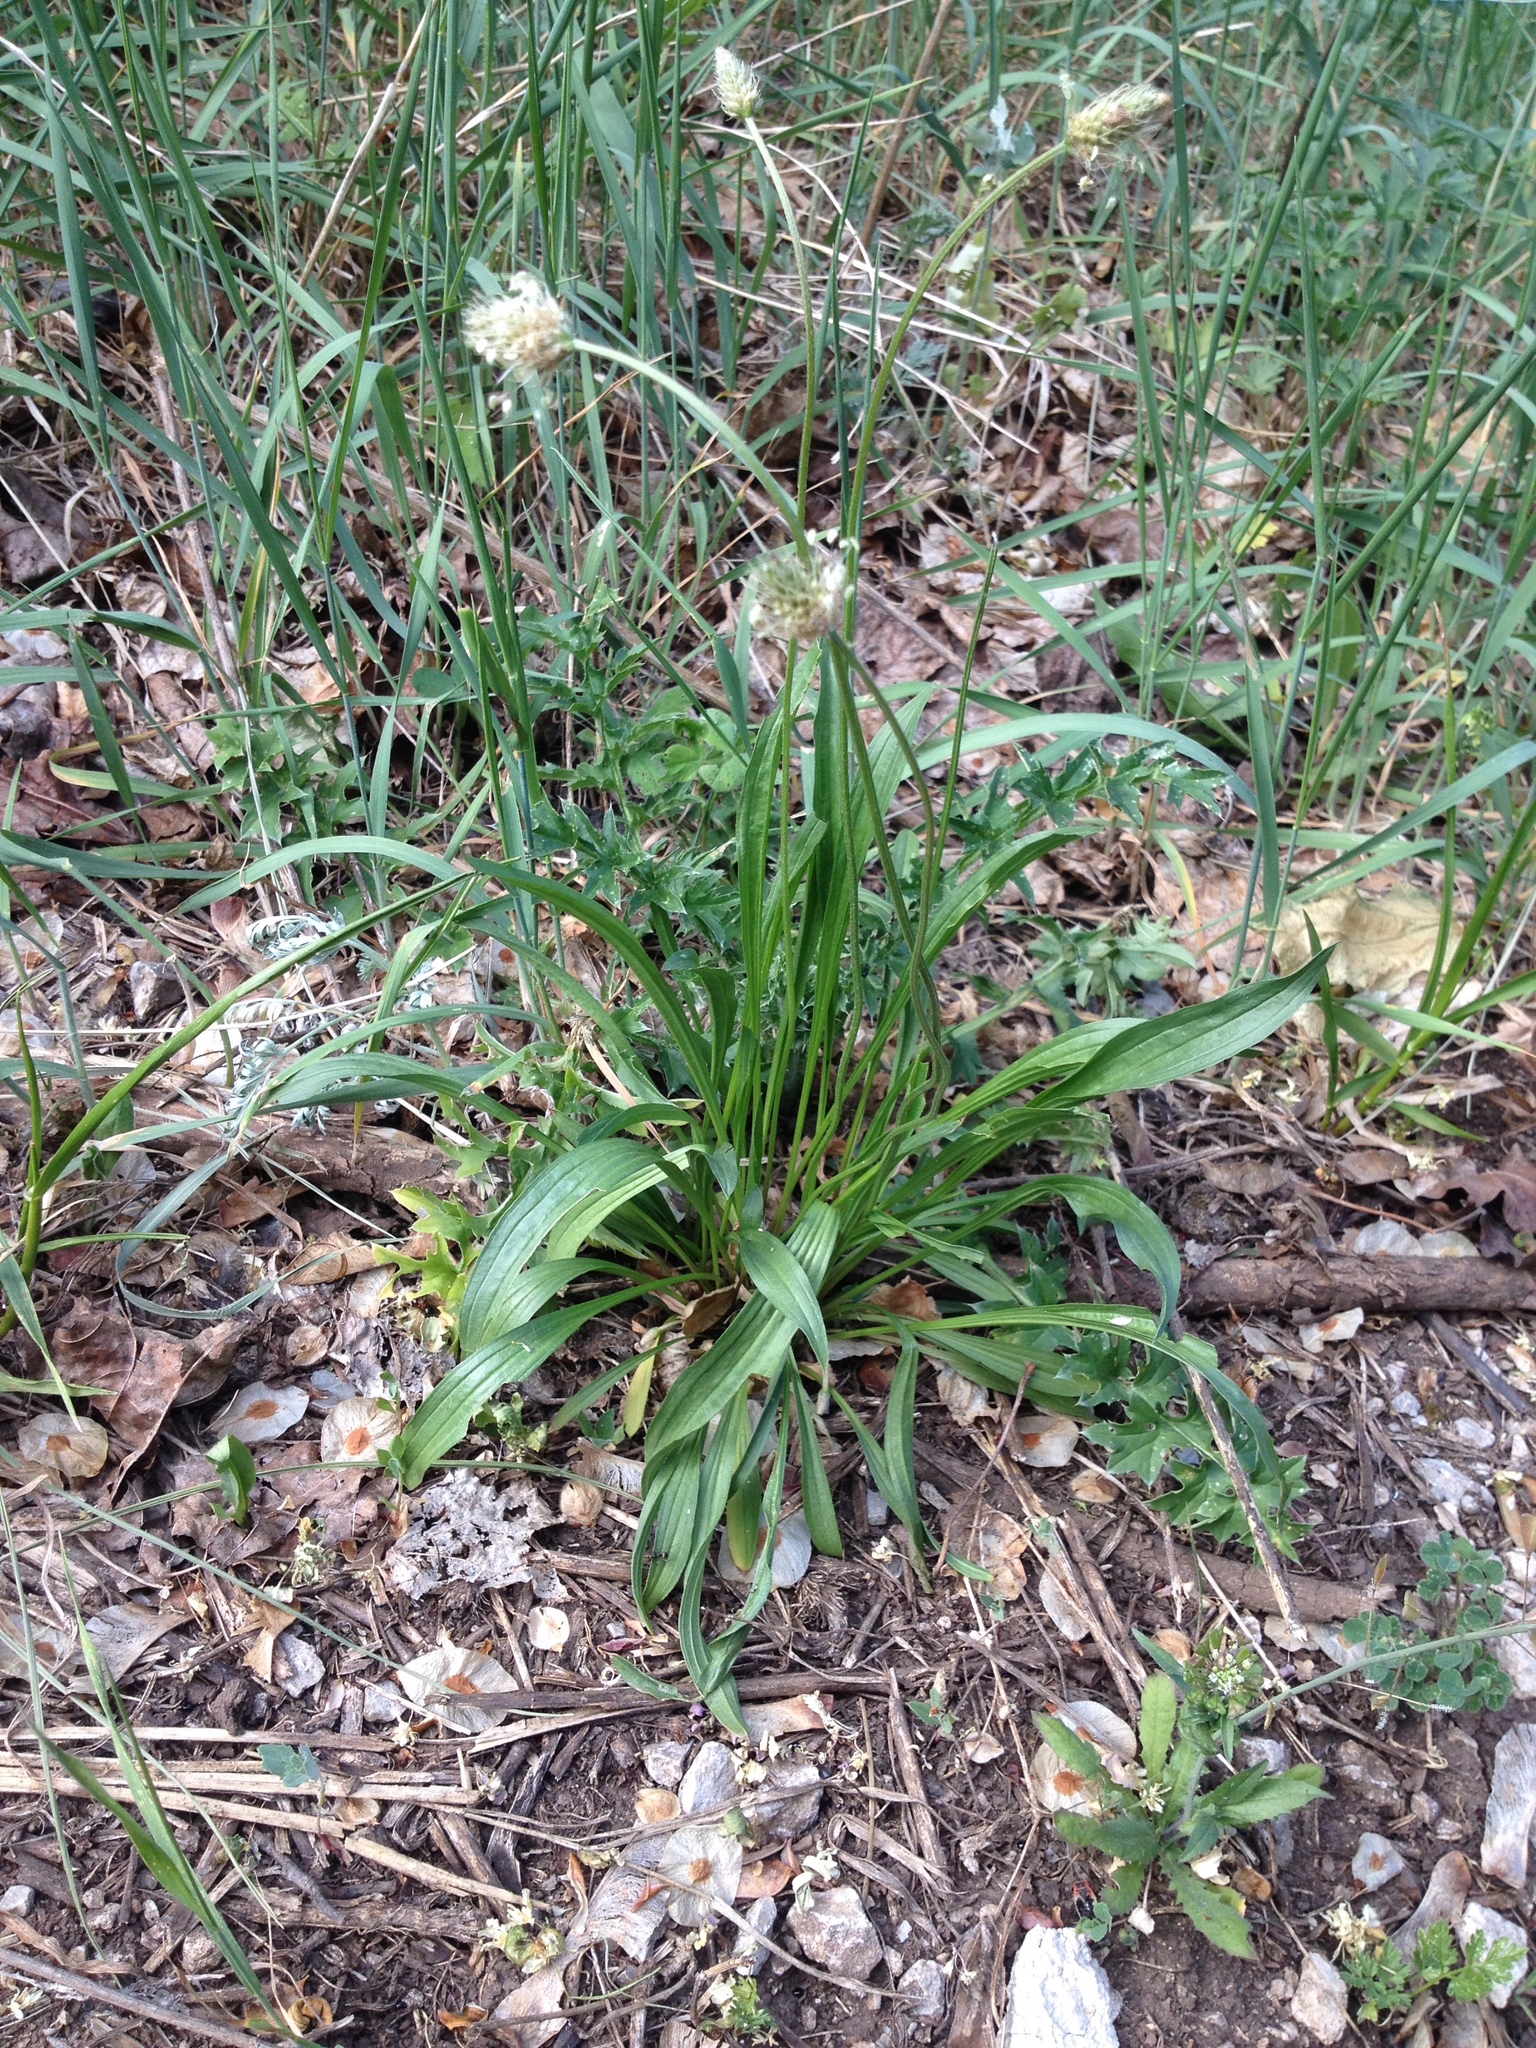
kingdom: Plantae
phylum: Tracheophyta
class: Magnoliopsida
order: Lamiales
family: Plantaginaceae
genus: Plantago
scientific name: Plantago lanceolata
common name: Ribwort plantain
